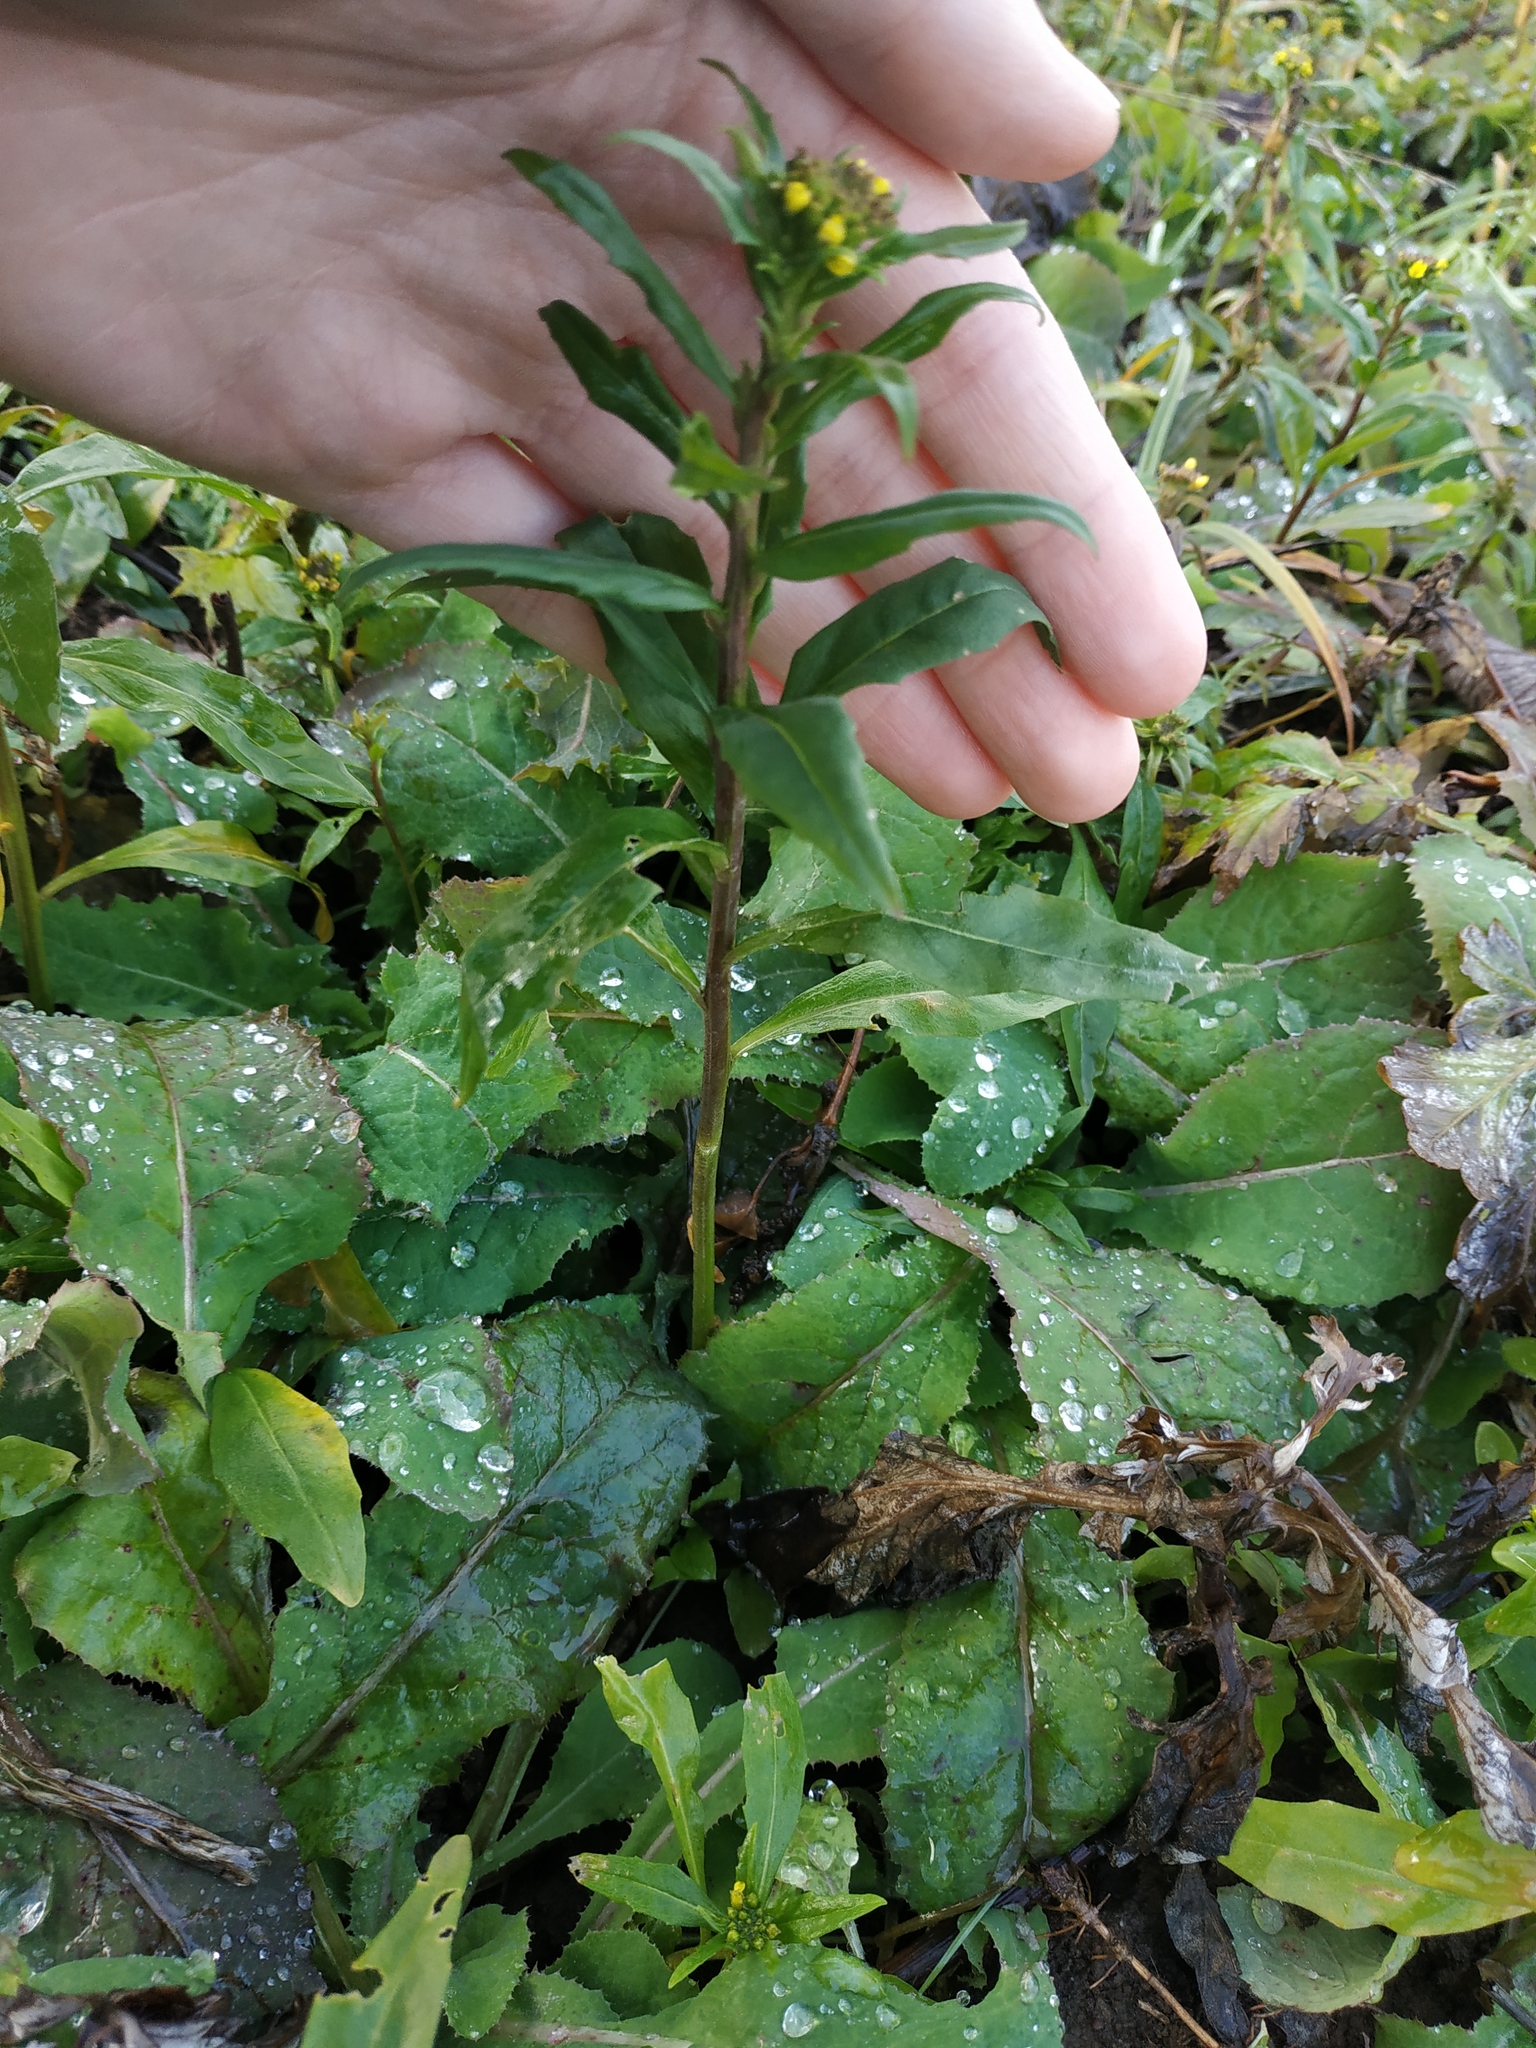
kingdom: Plantae
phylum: Tracheophyta
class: Magnoliopsida
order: Brassicales
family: Brassicaceae
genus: Erysimum
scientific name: Erysimum cheiranthoides
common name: Treacle mustard
